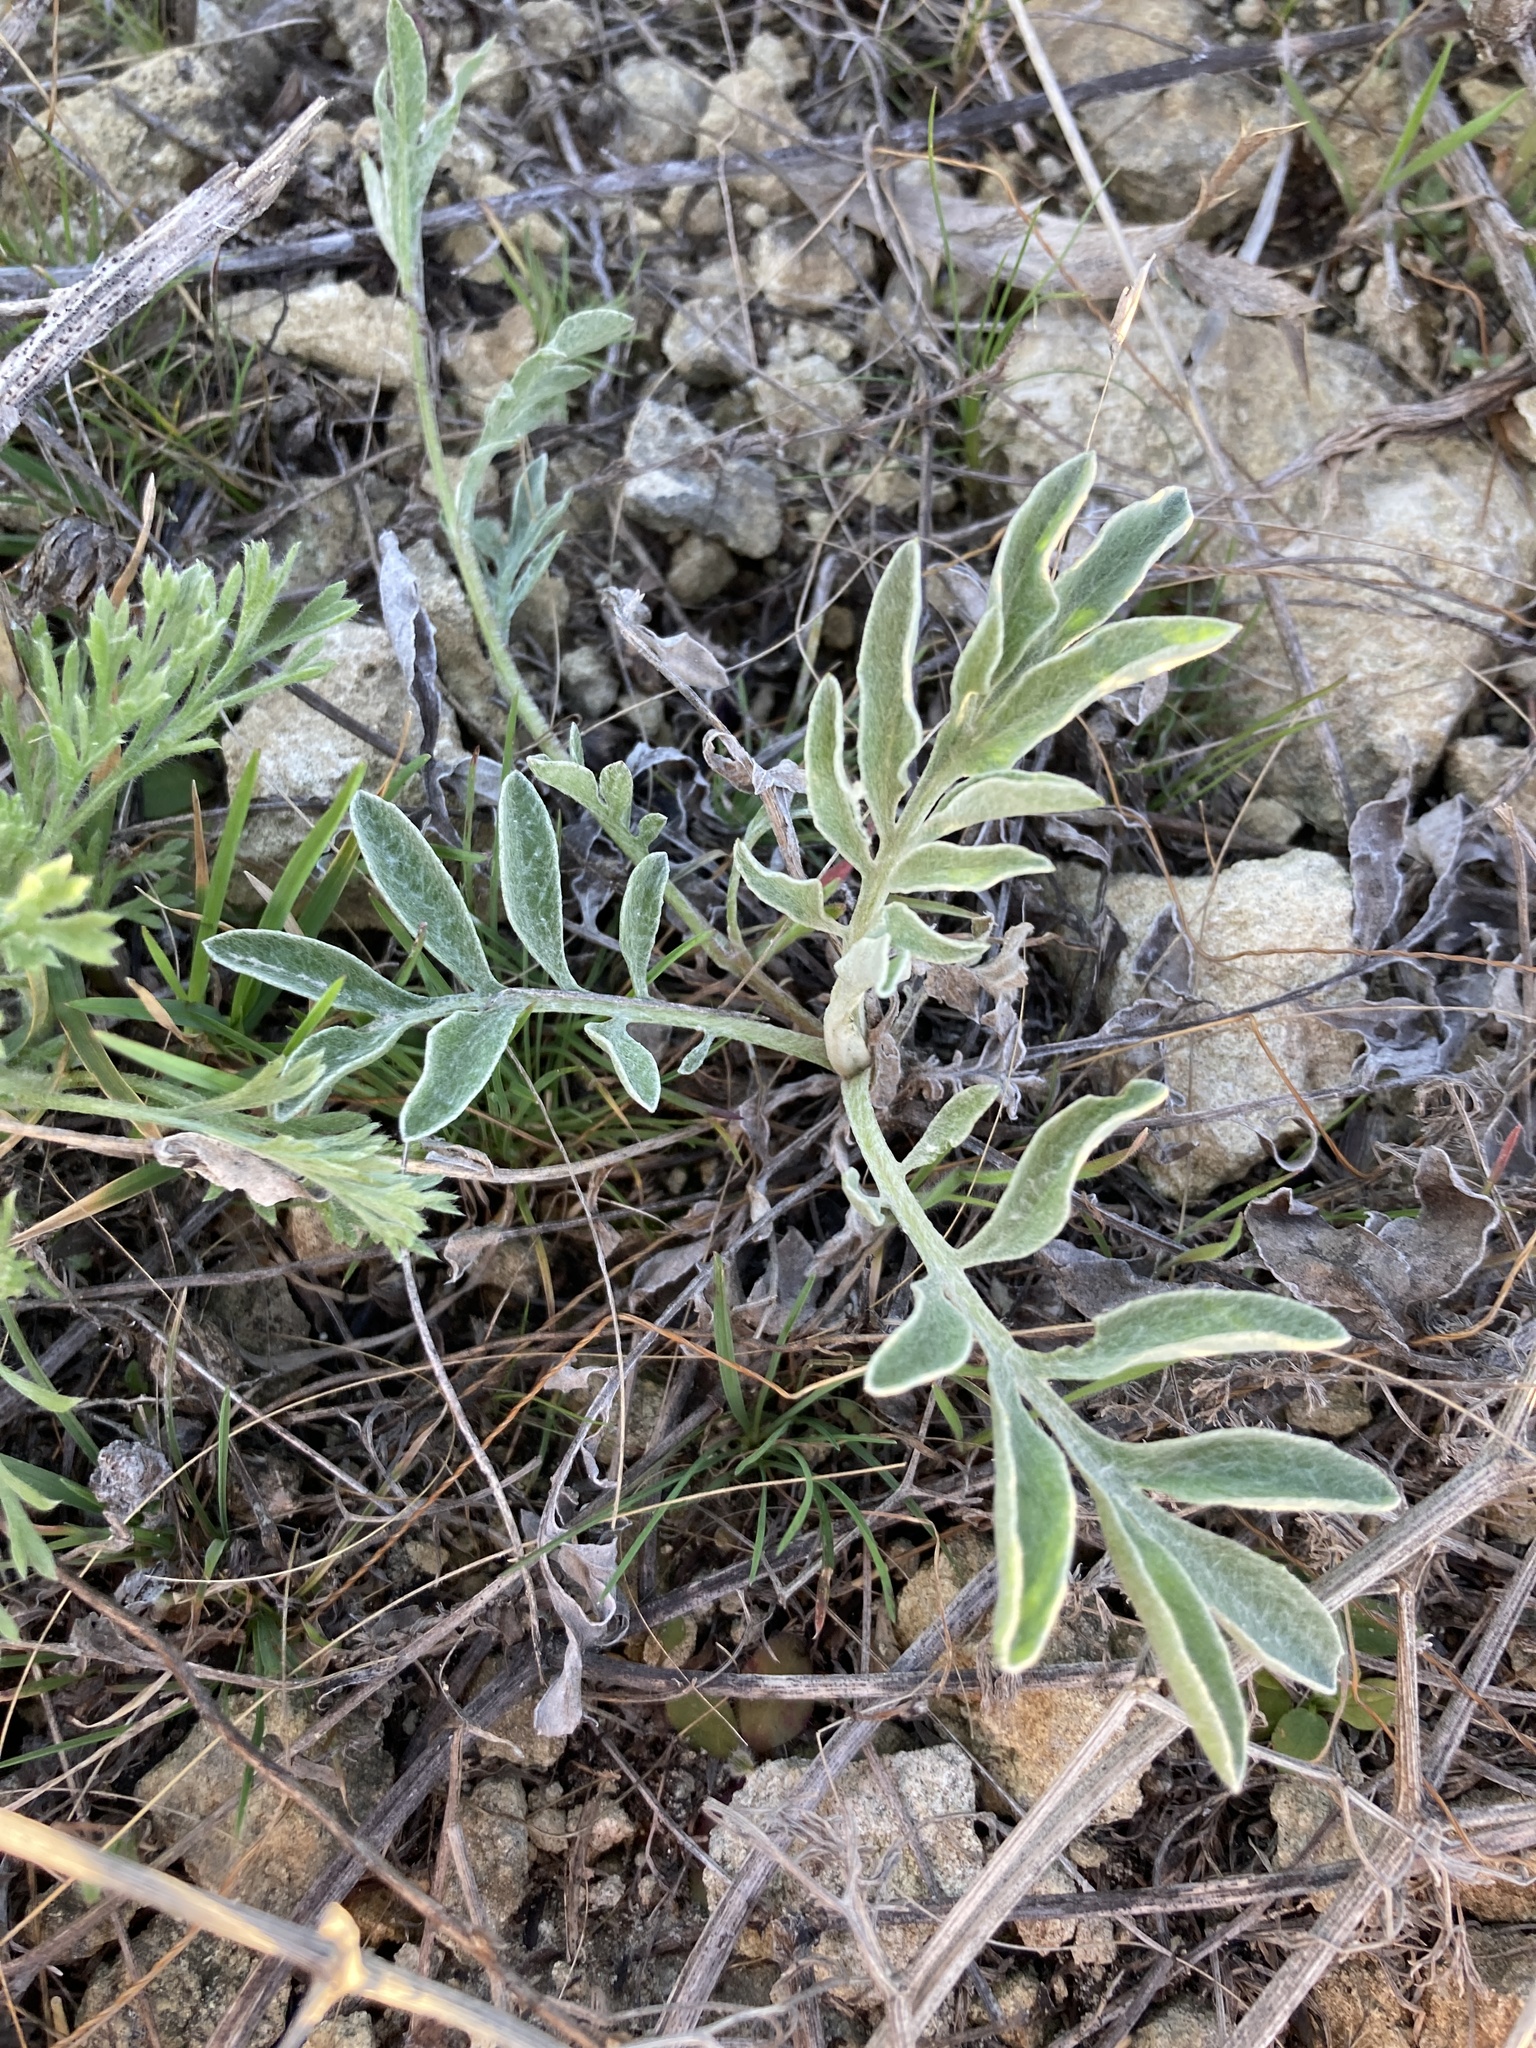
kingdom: Plantae
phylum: Tracheophyta
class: Magnoliopsida
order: Asterales
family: Asteraceae
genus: Psephellus
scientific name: Psephellus marschallianus
